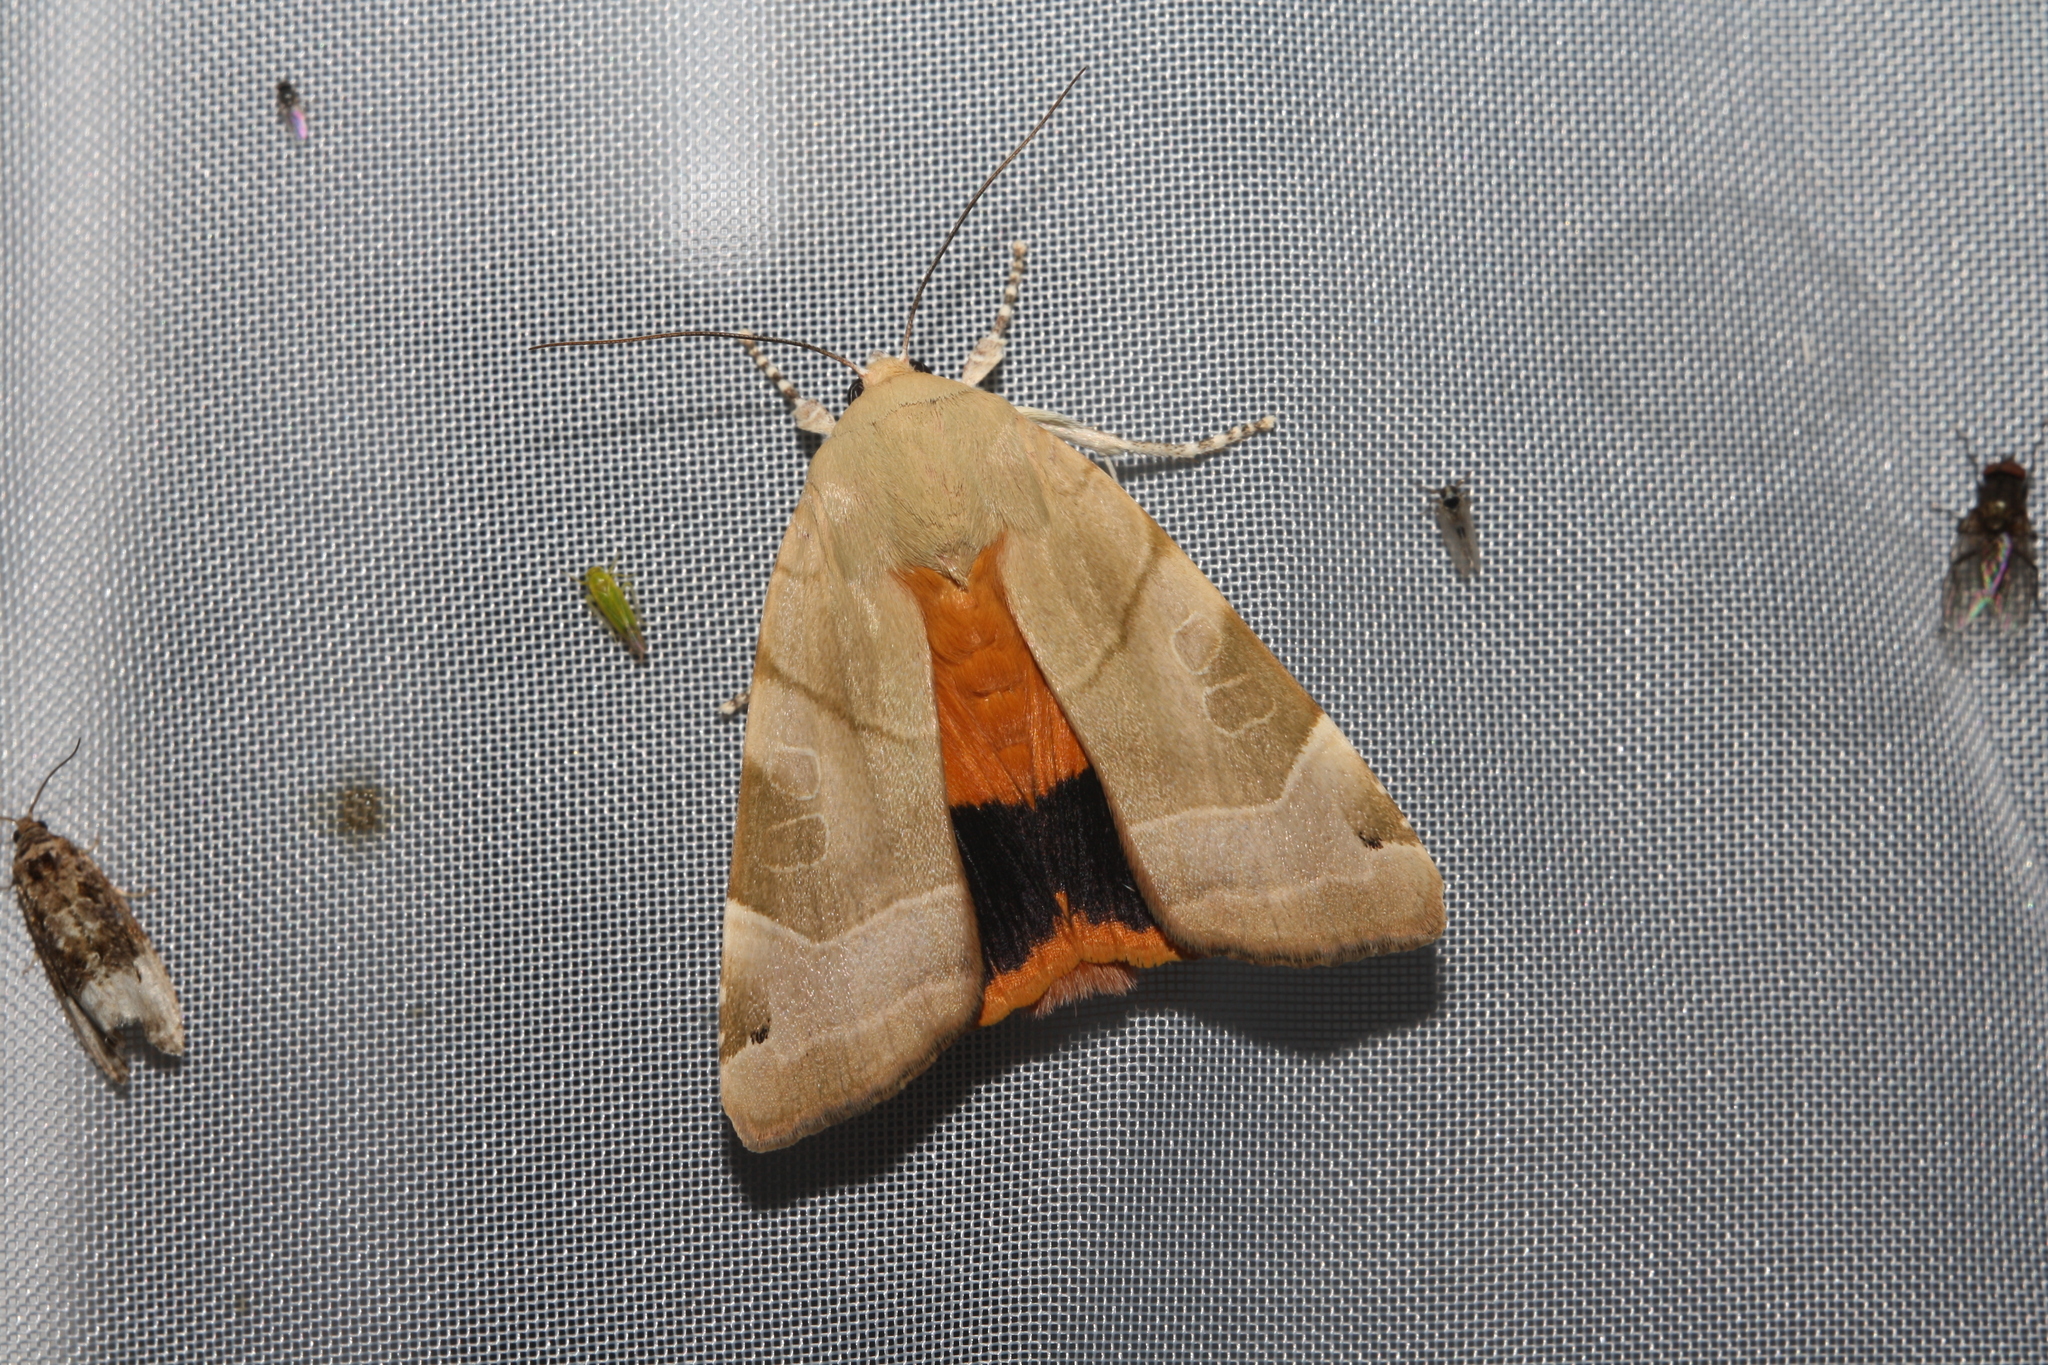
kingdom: Animalia
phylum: Arthropoda
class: Insecta
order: Lepidoptera
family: Noctuidae
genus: Noctua
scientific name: Noctua fimbriata
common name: Broad-bordered yellow underwing
